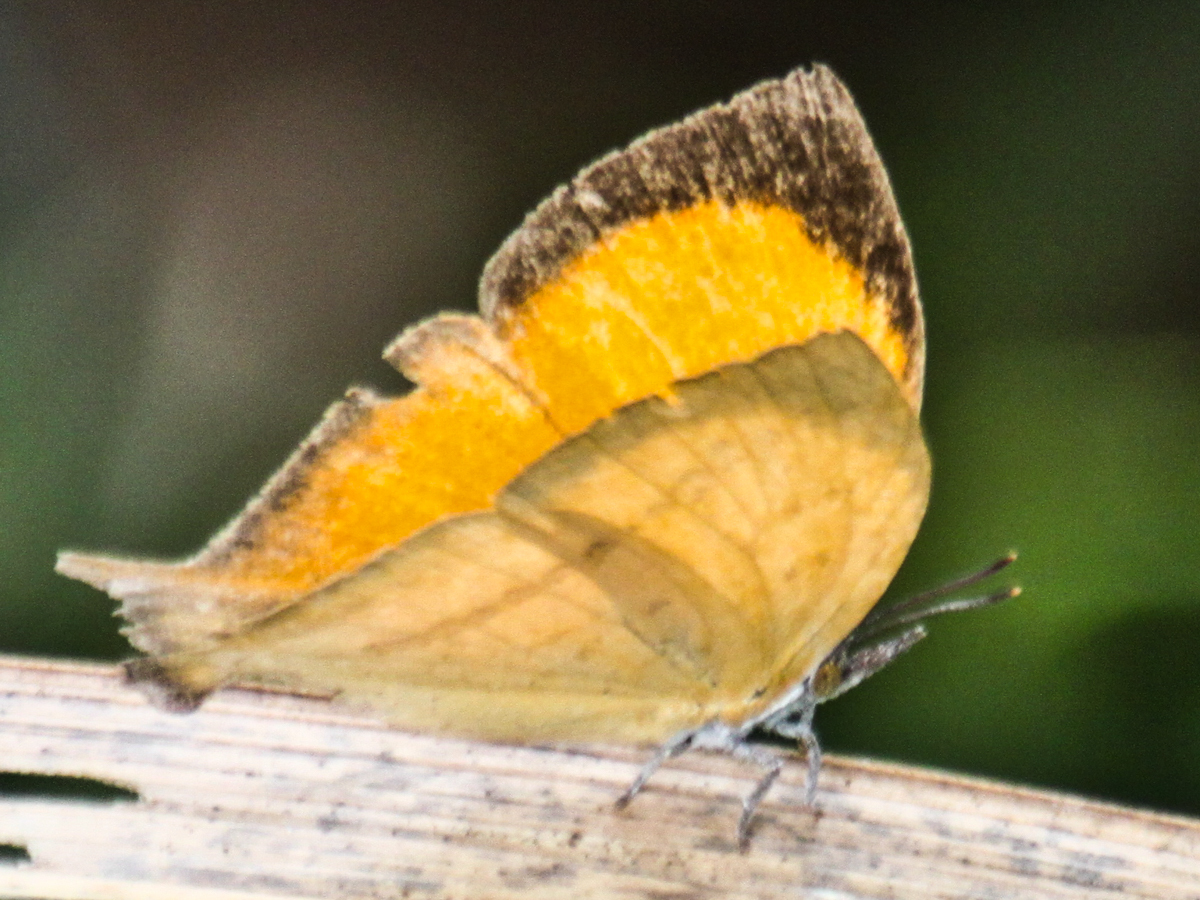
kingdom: Animalia
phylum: Arthropoda
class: Insecta
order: Lepidoptera
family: Lycaenidae
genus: Loxura
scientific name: Loxura atymnus
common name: Common yamfly
